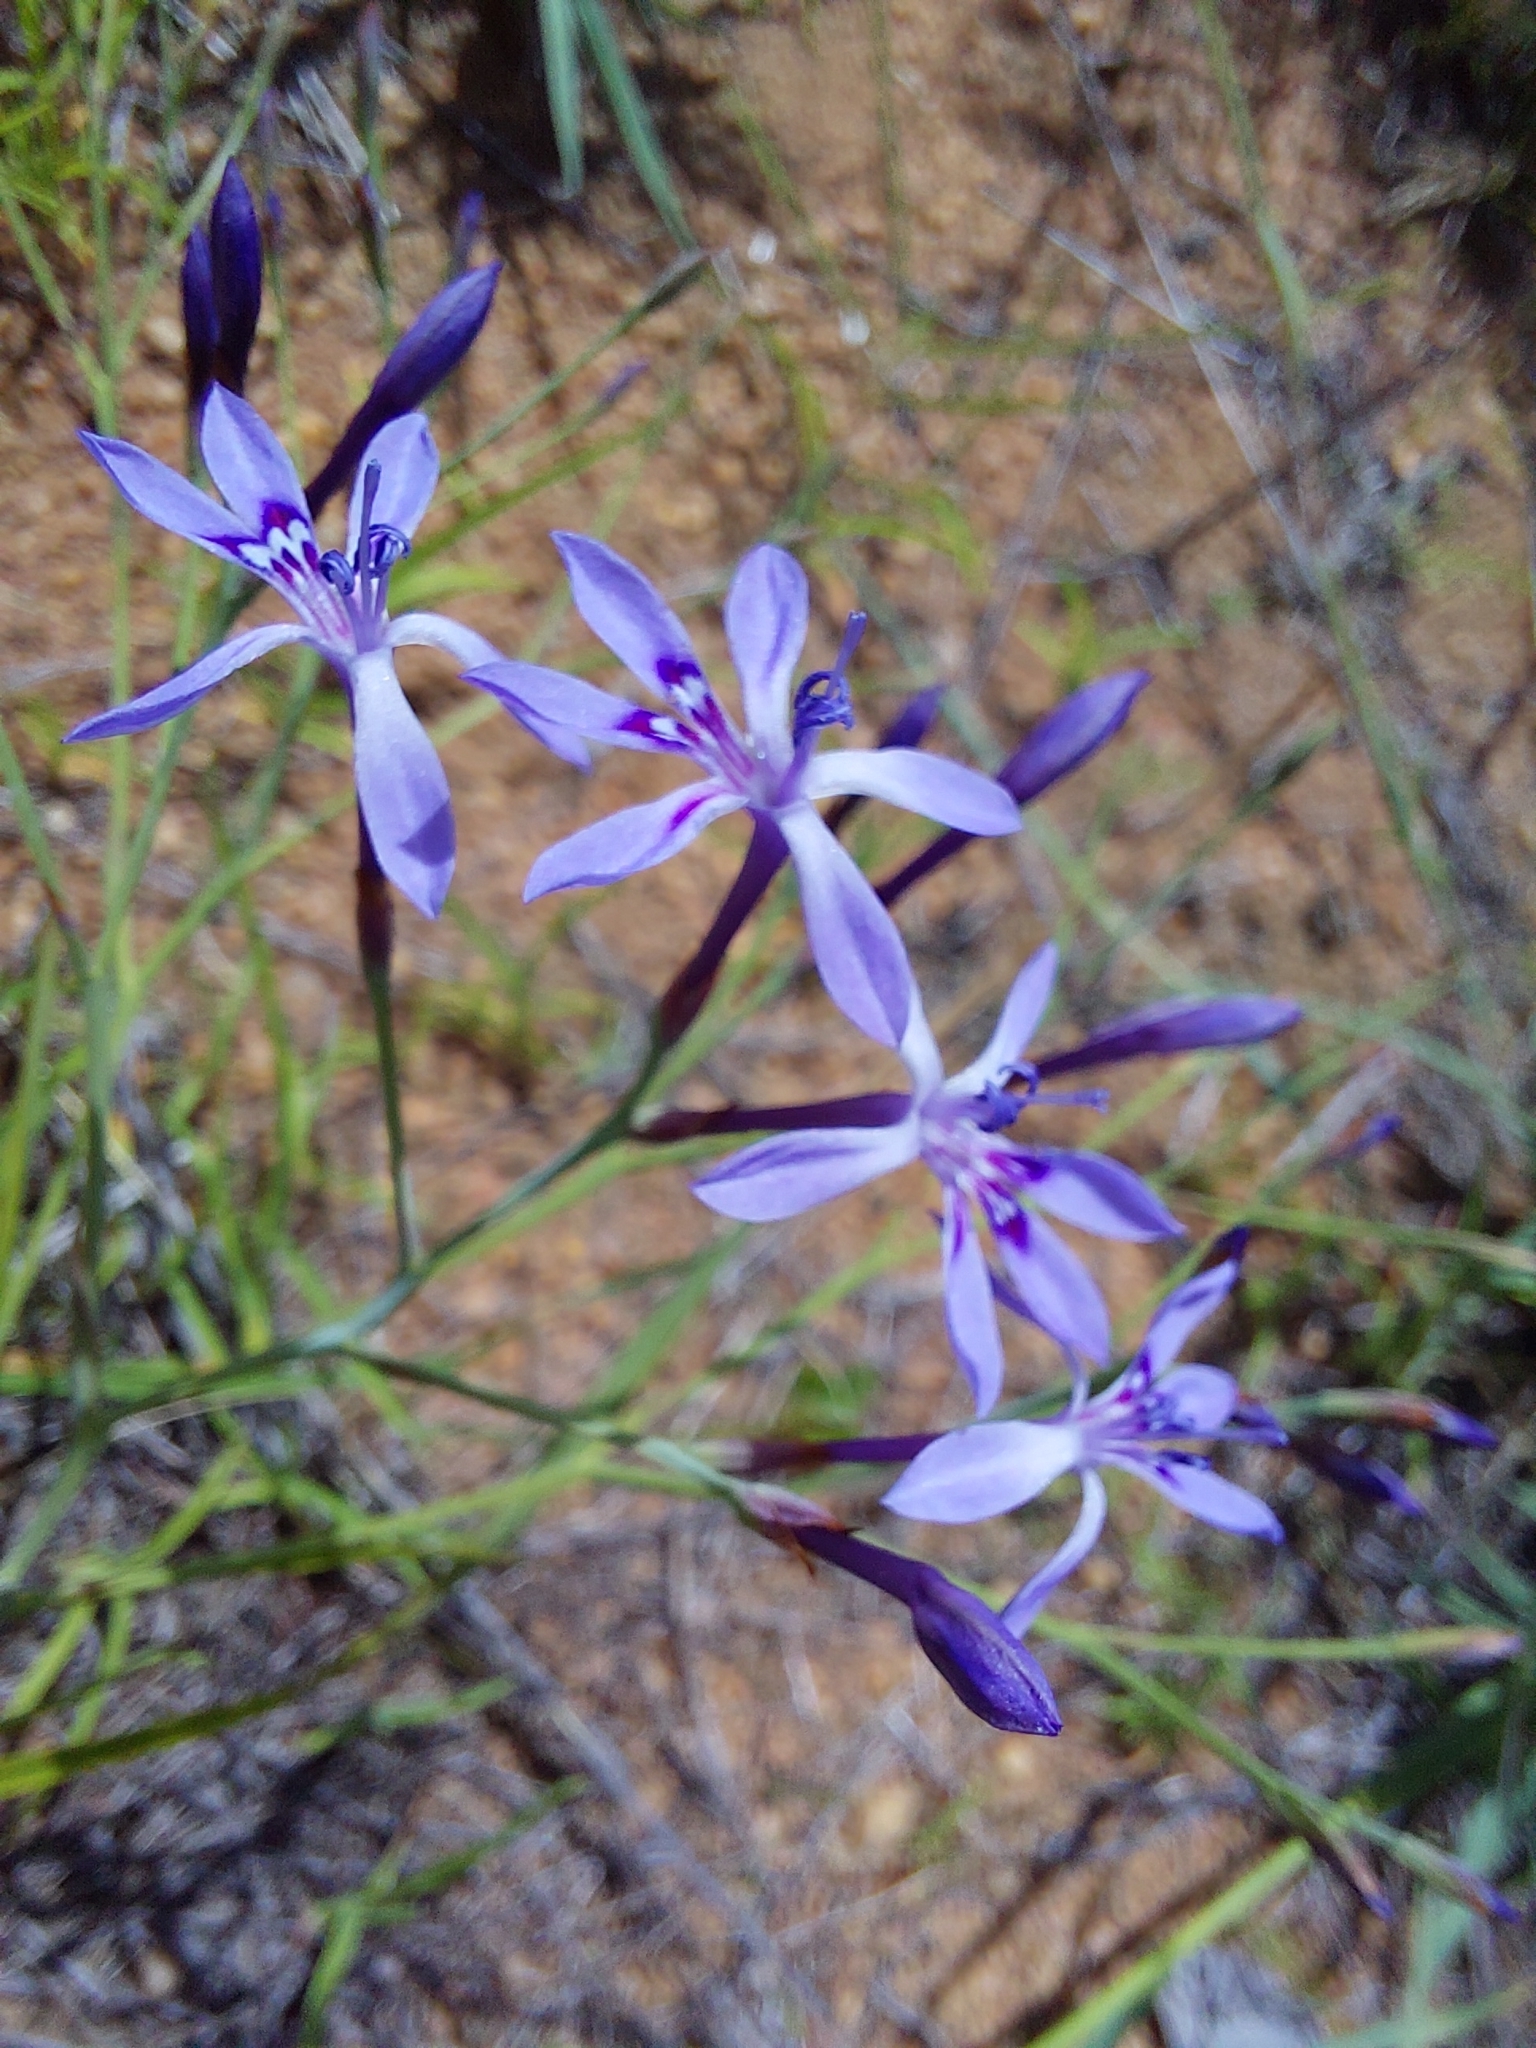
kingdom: Plantae
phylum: Tracheophyta
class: Liliopsida
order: Asparagales
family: Iridaceae
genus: Afrosolen
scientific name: Afrosolen sandersonii
